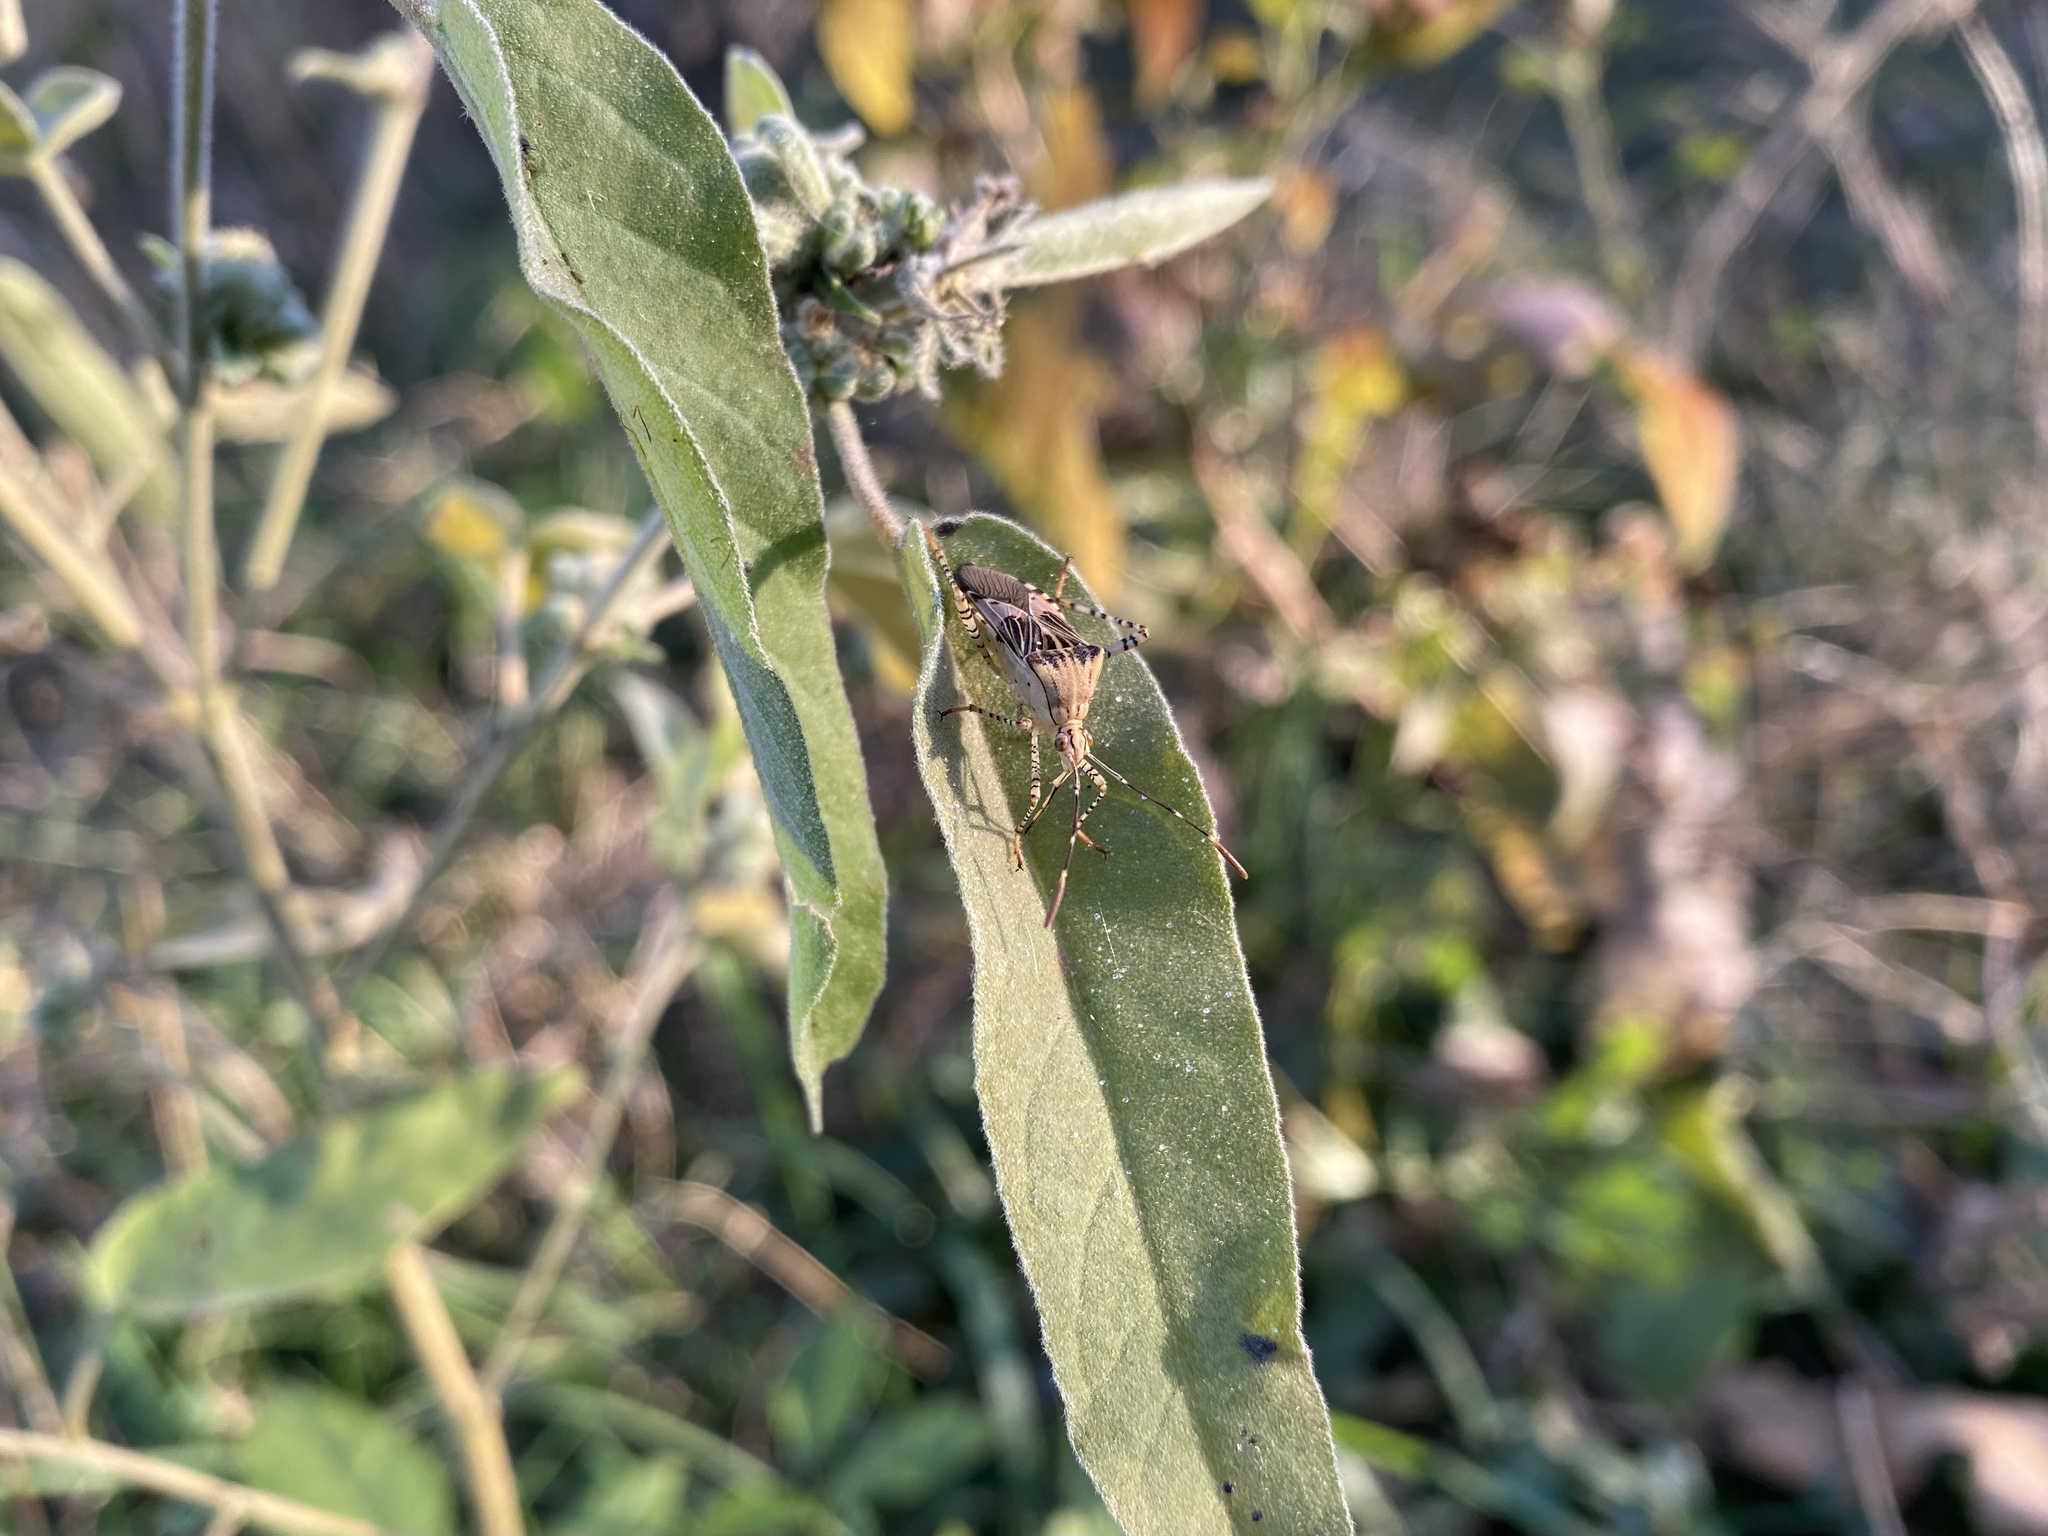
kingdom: Animalia
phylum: Arthropoda
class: Insecta
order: Hemiptera
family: Coreidae
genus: Hypselonotus
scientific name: Hypselonotus punctiventris
